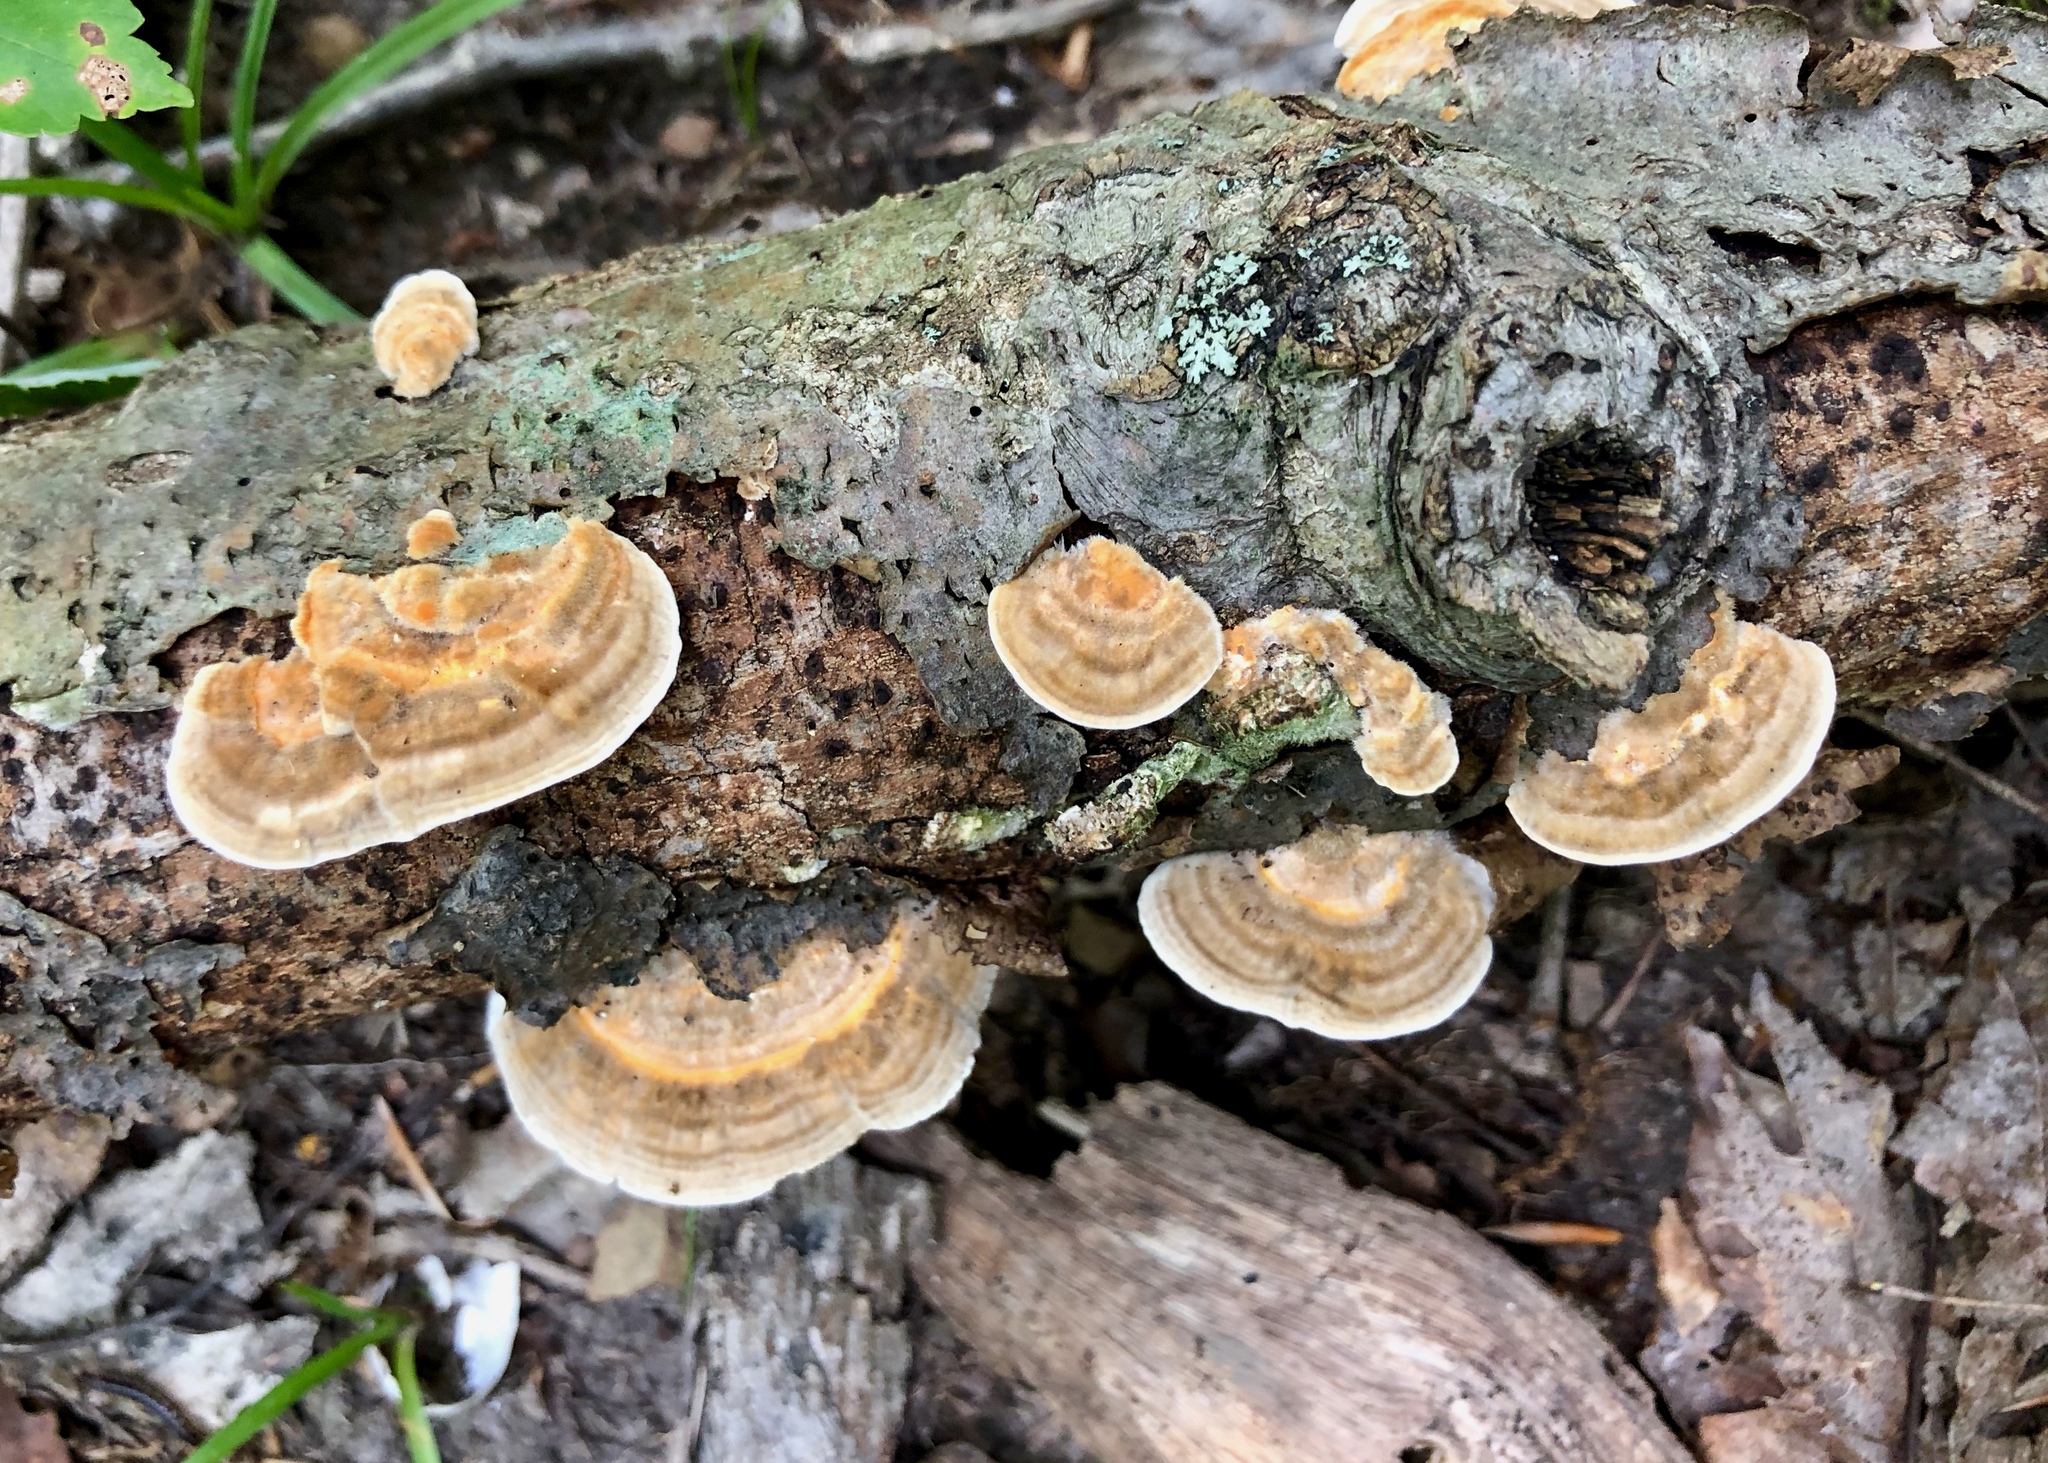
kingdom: Fungi
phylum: Basidiomycota
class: Agaricomycetes
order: Polyporales
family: Polyporaceae
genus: Lenzites
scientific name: Lenzites betulinus
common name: Birch mazegill
